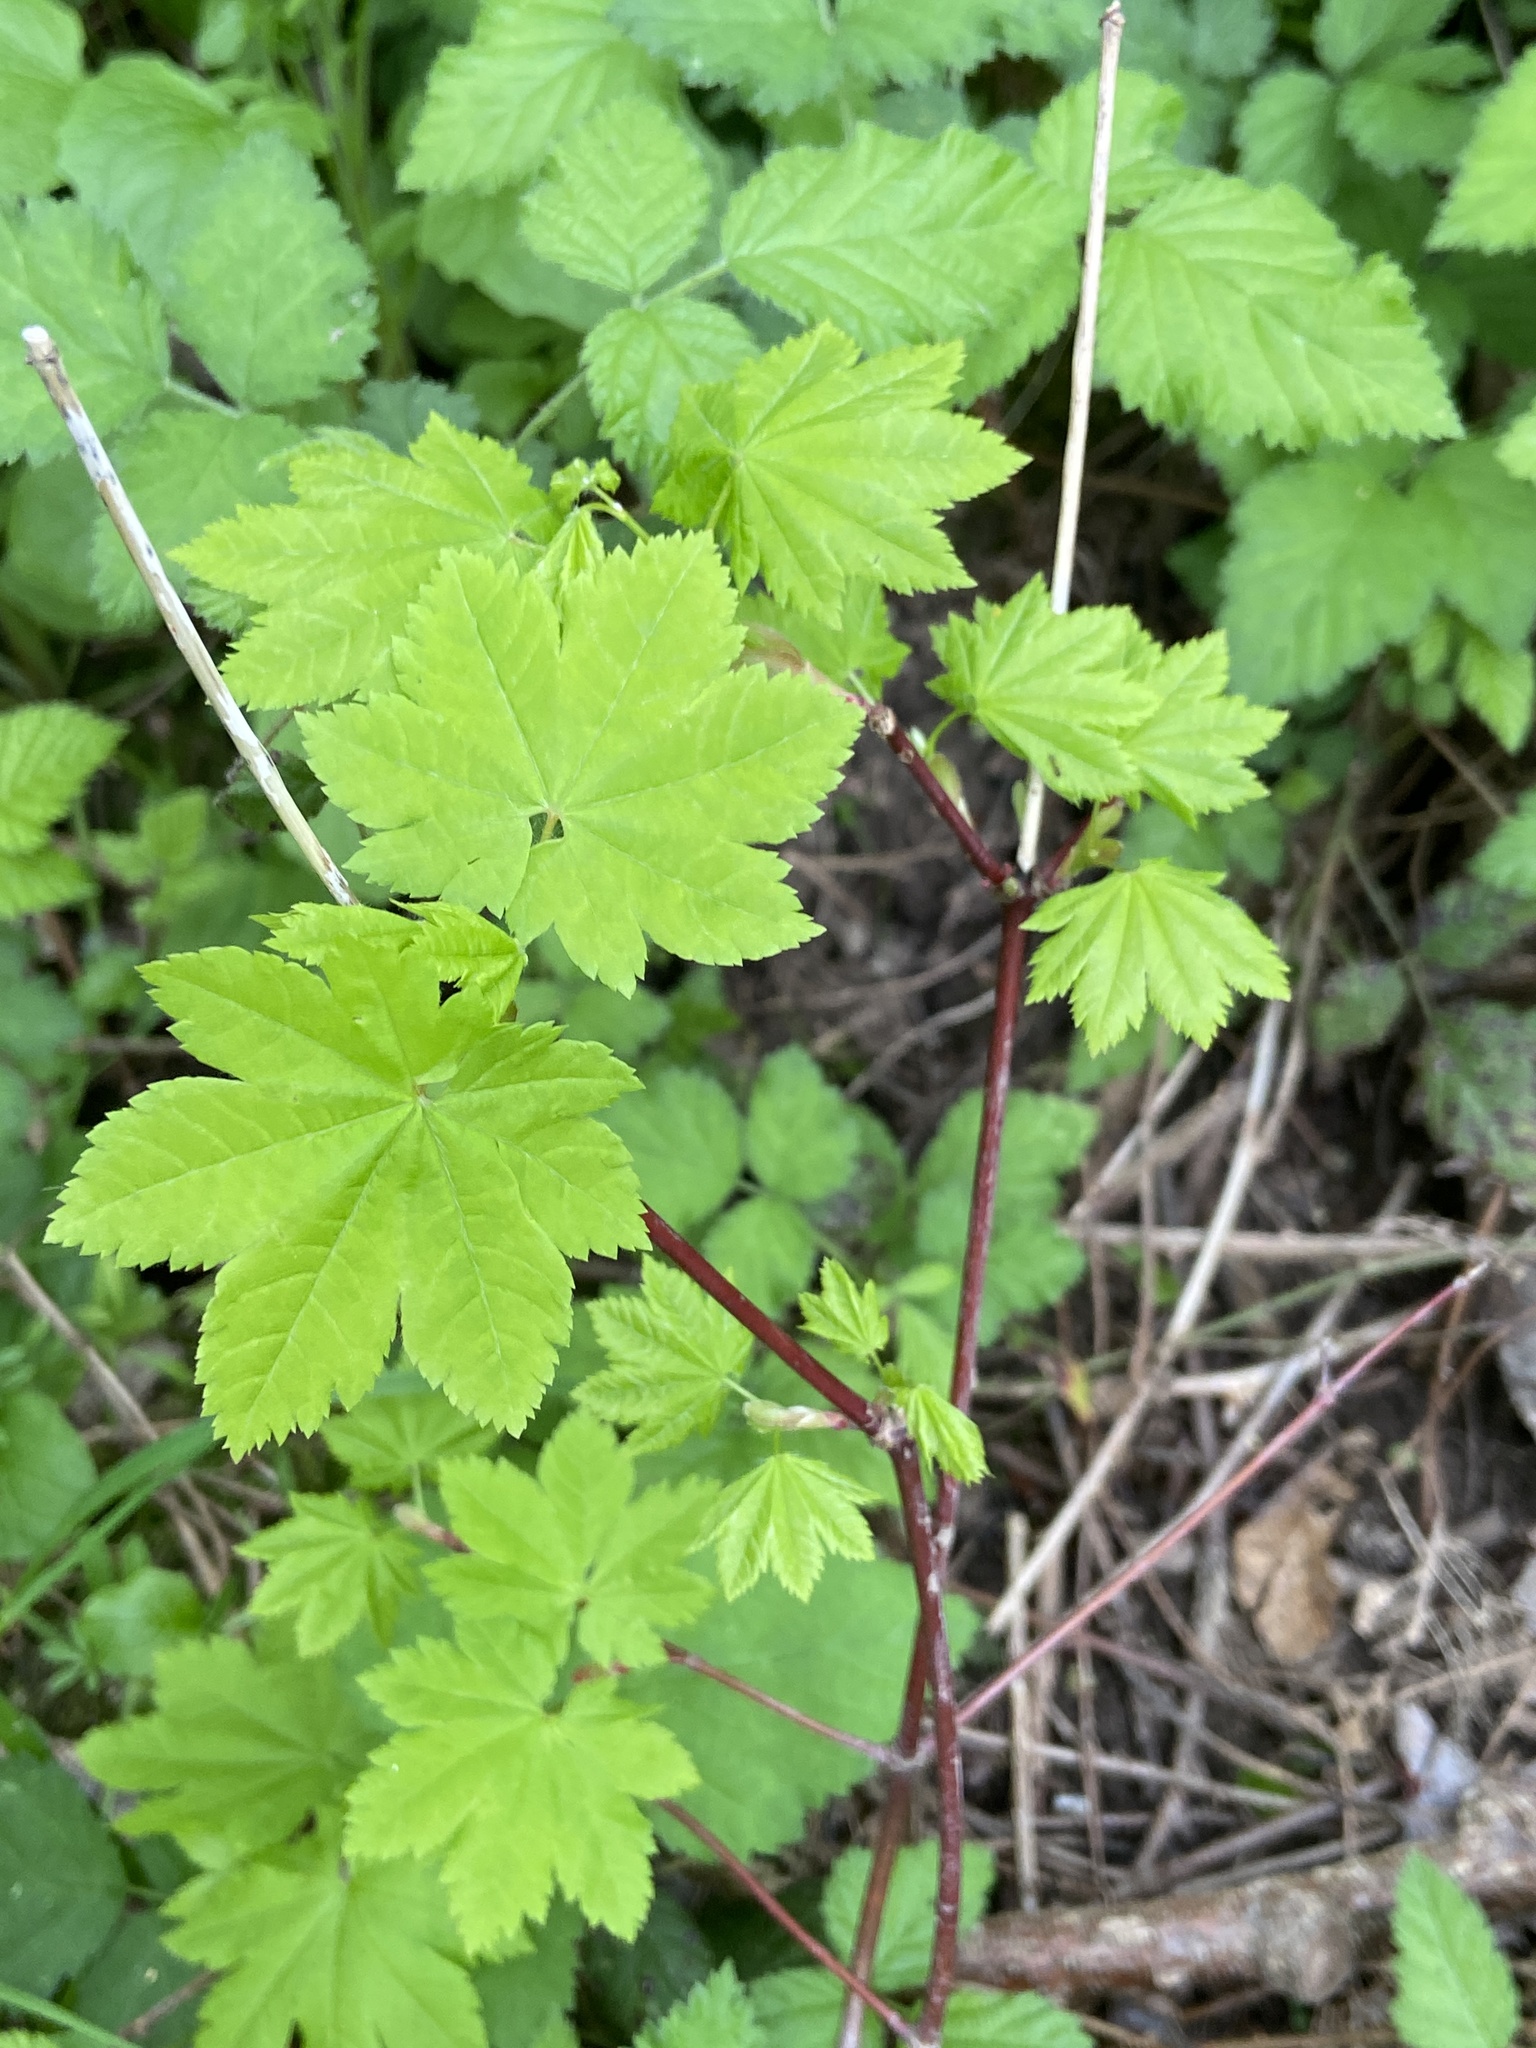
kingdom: Plantae
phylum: Tracheophyta
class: Magnoliopsida
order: Sapindales
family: Sapindaceae
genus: Acer
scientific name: Acer circinatum
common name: Vine maple
